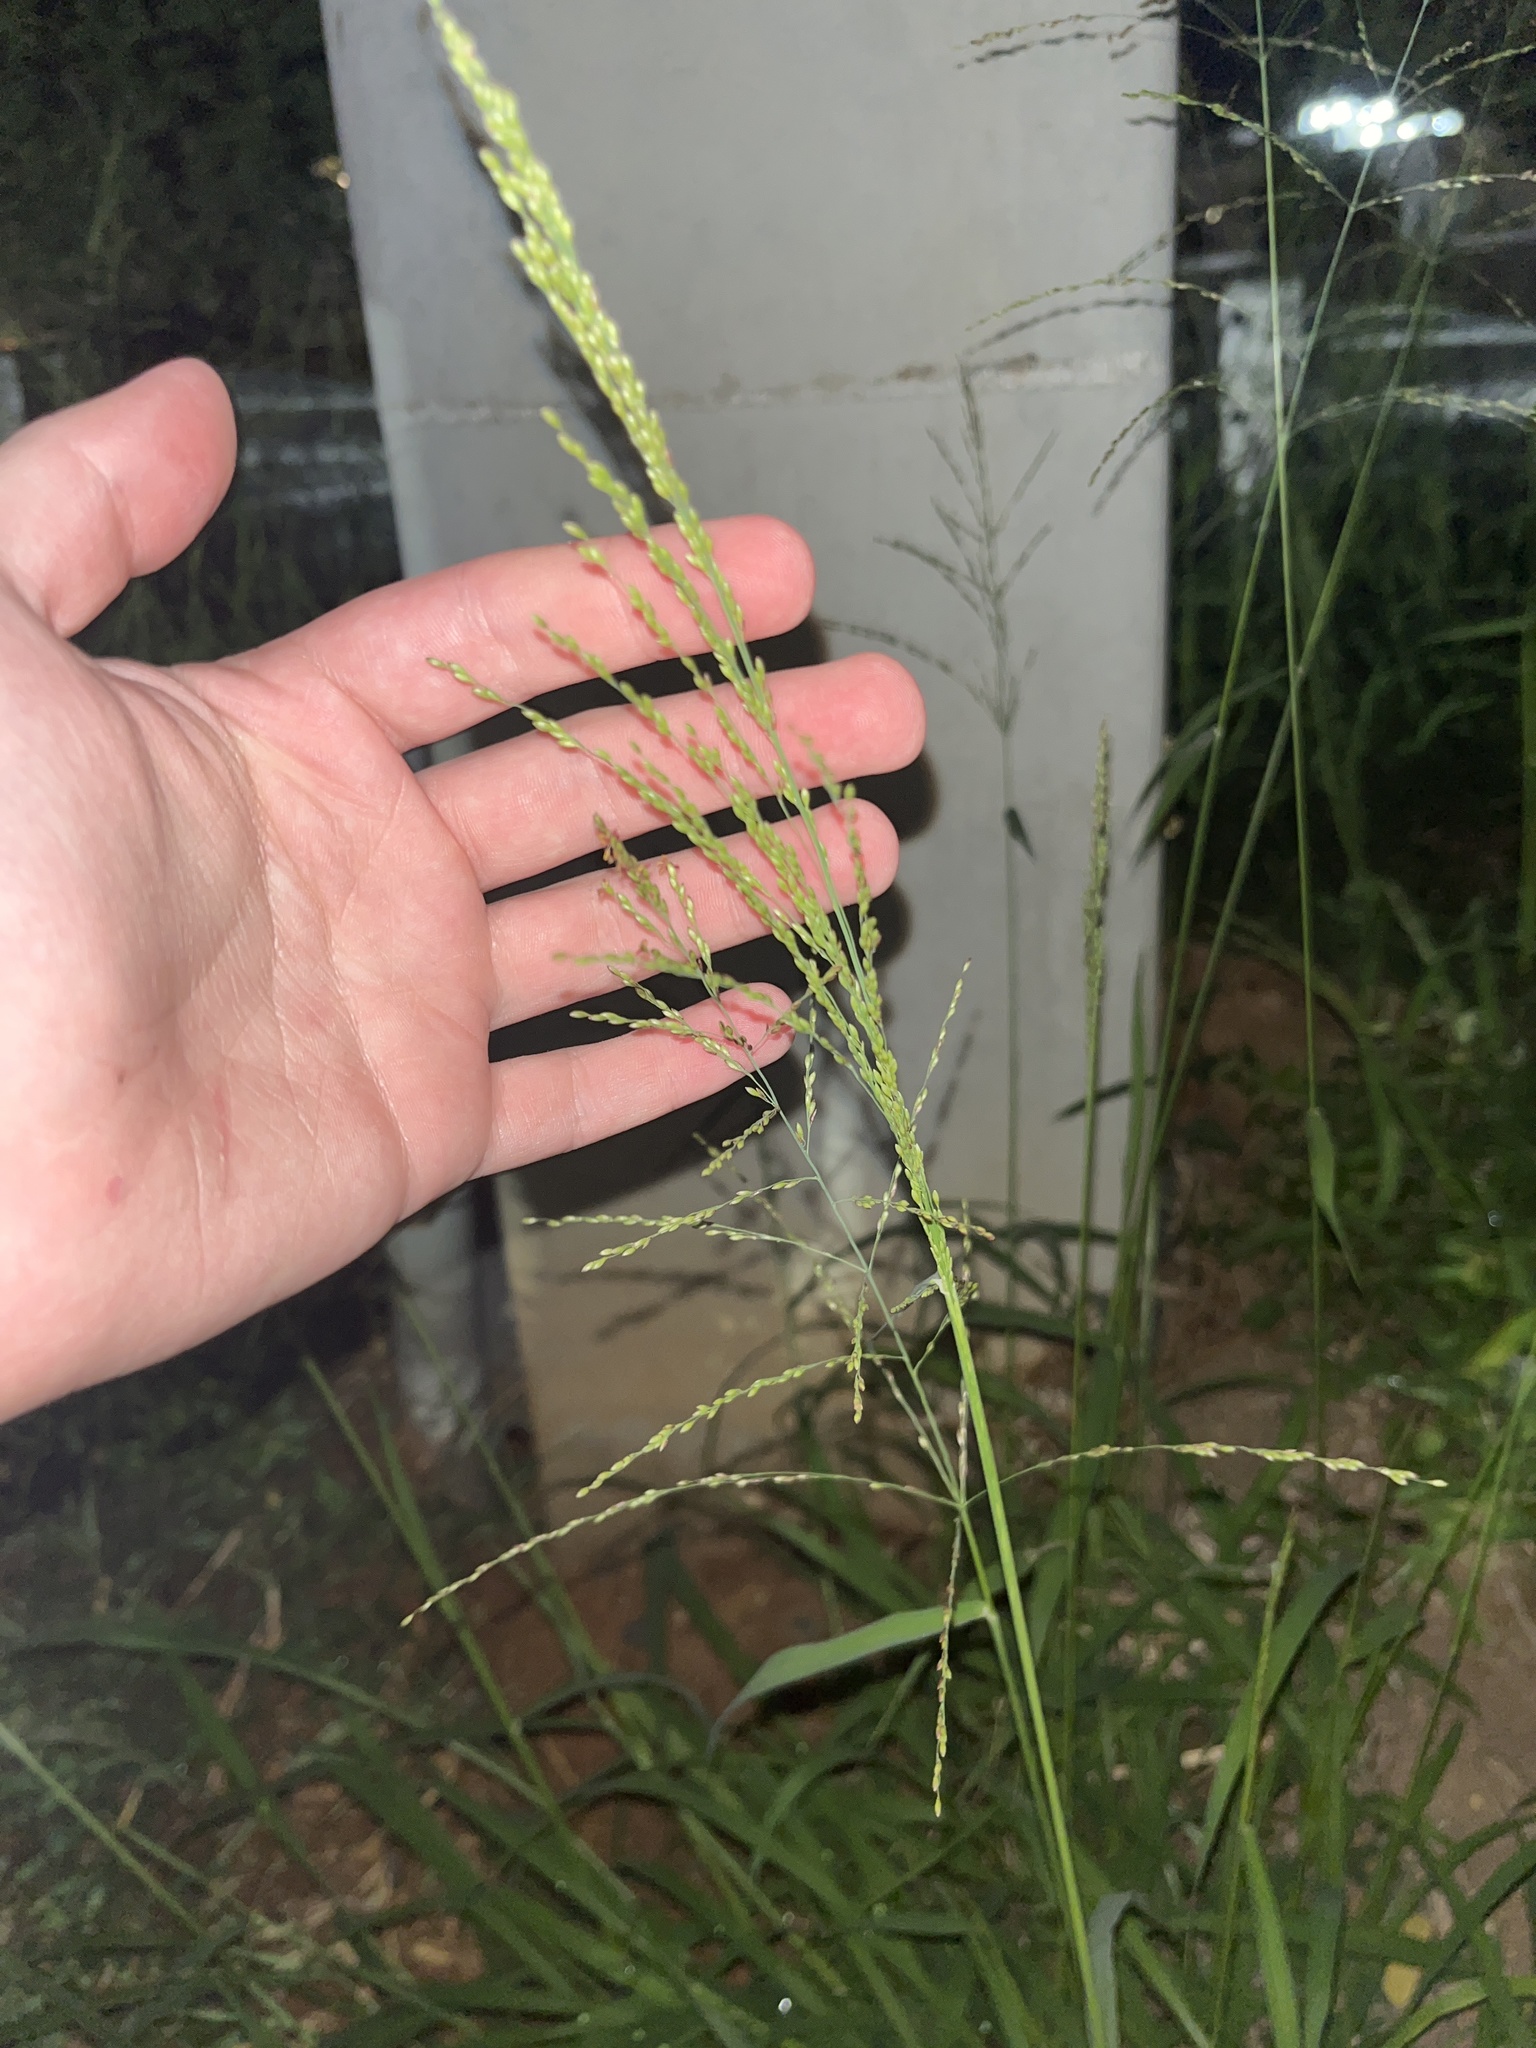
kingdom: Plantae
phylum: Tracheophyta
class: Liliopsida
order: Poales
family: Poaceae
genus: Megathyrsus
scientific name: Megathyrsus maximus
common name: Guineagrass
